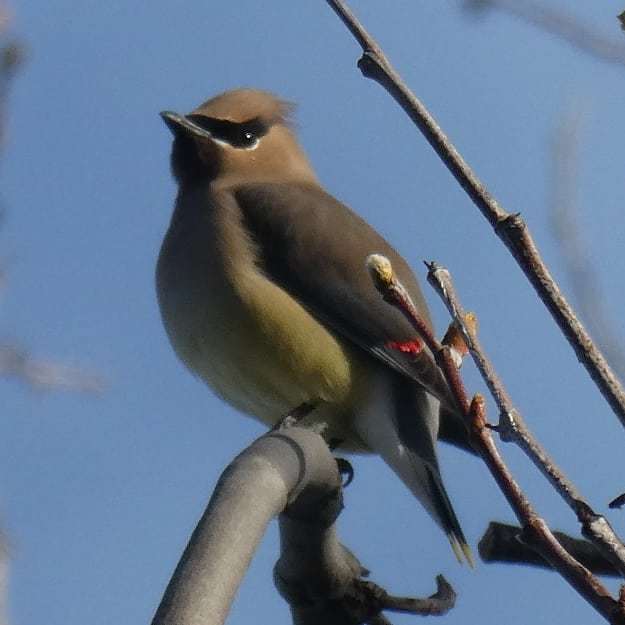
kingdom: Animalia
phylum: Chordata
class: Aves
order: Passeriformes
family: Bombycillidae
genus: Bombycilla
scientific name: Bombycilla cedrorum
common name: Cedar waxwing
